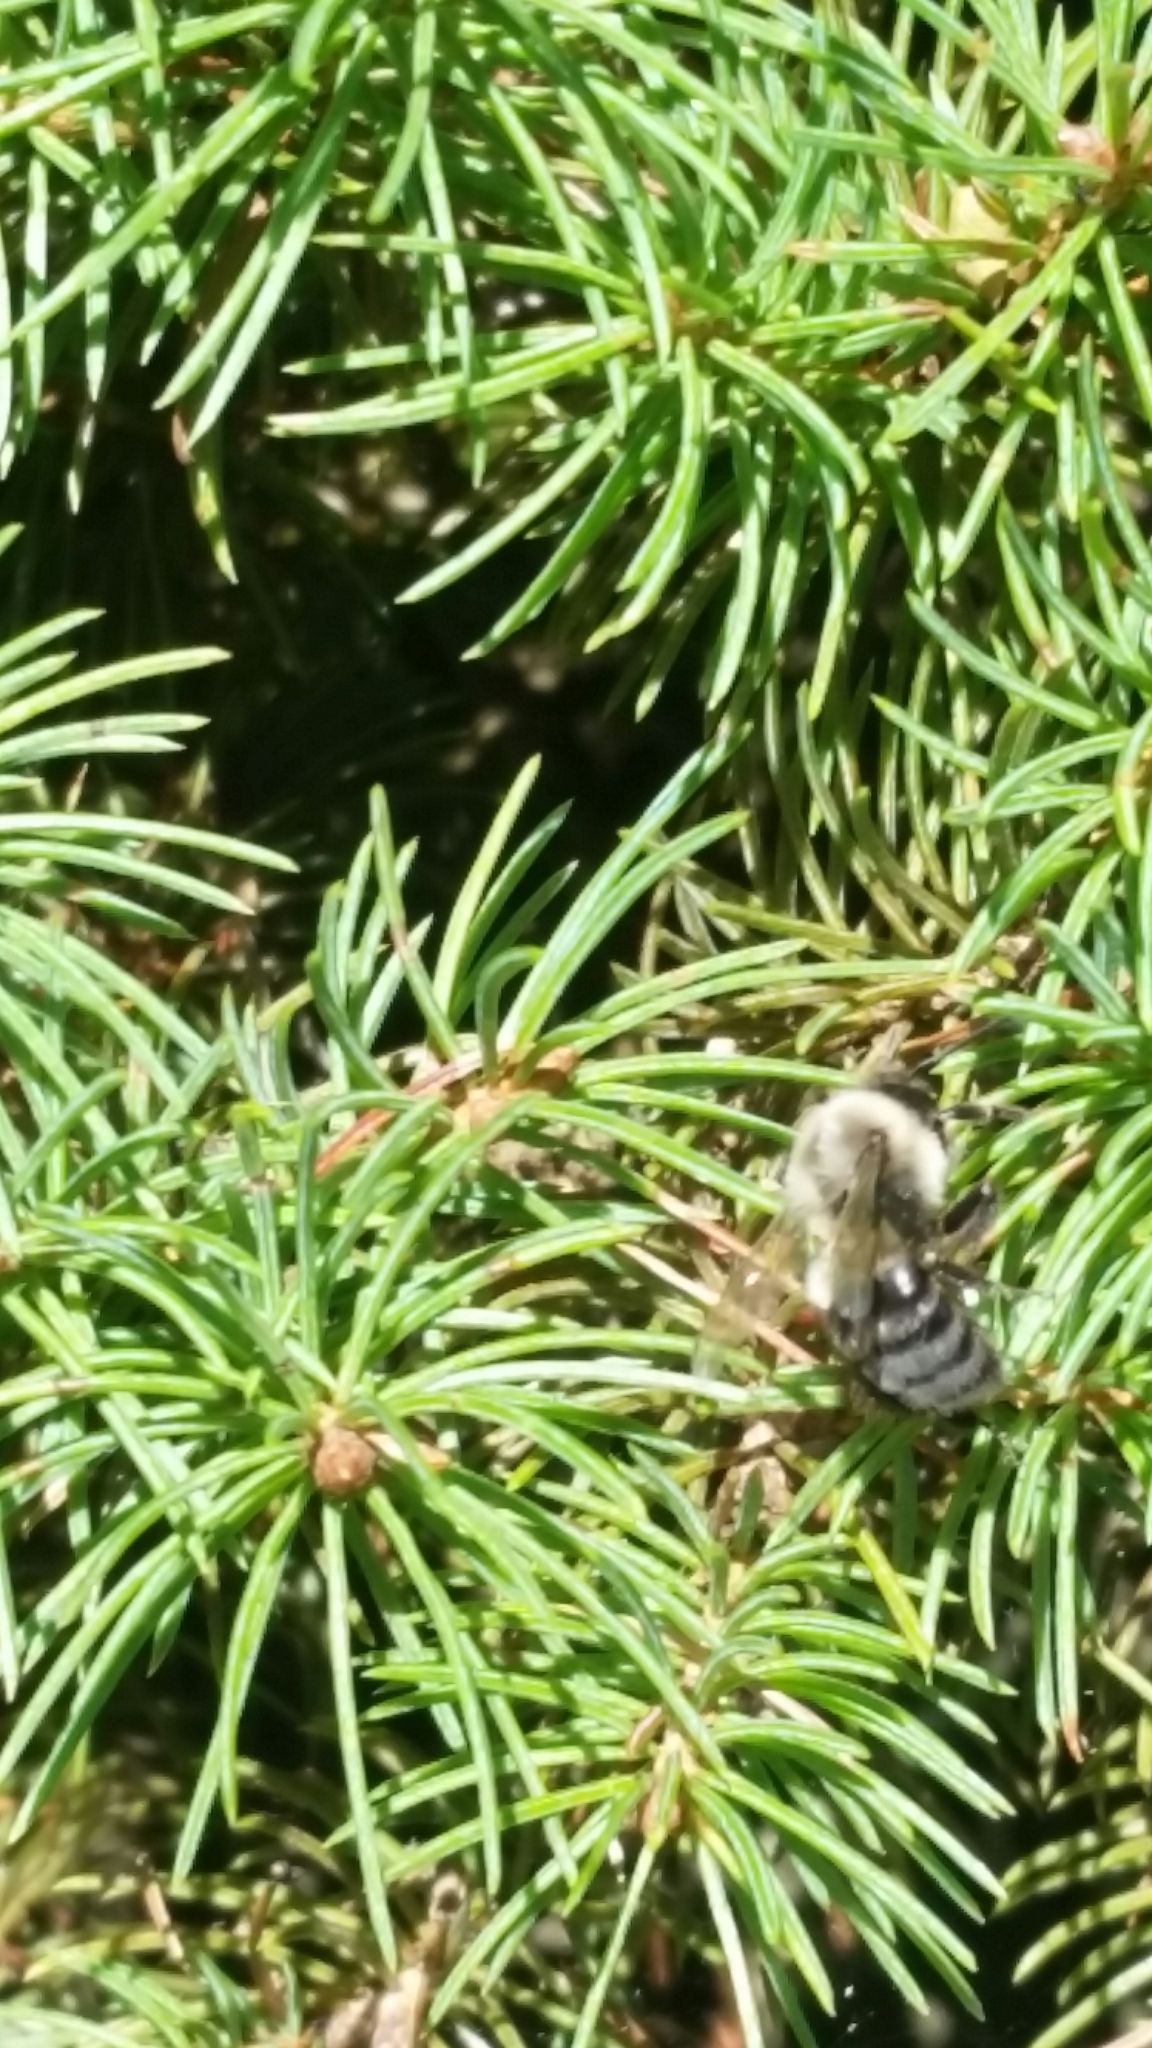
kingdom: Animalia
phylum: Arthropoda
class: Insecta
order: Hymenoptera
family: Apidae
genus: Bombus
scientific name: Bombus impatiens
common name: Common eastern bumble bee
